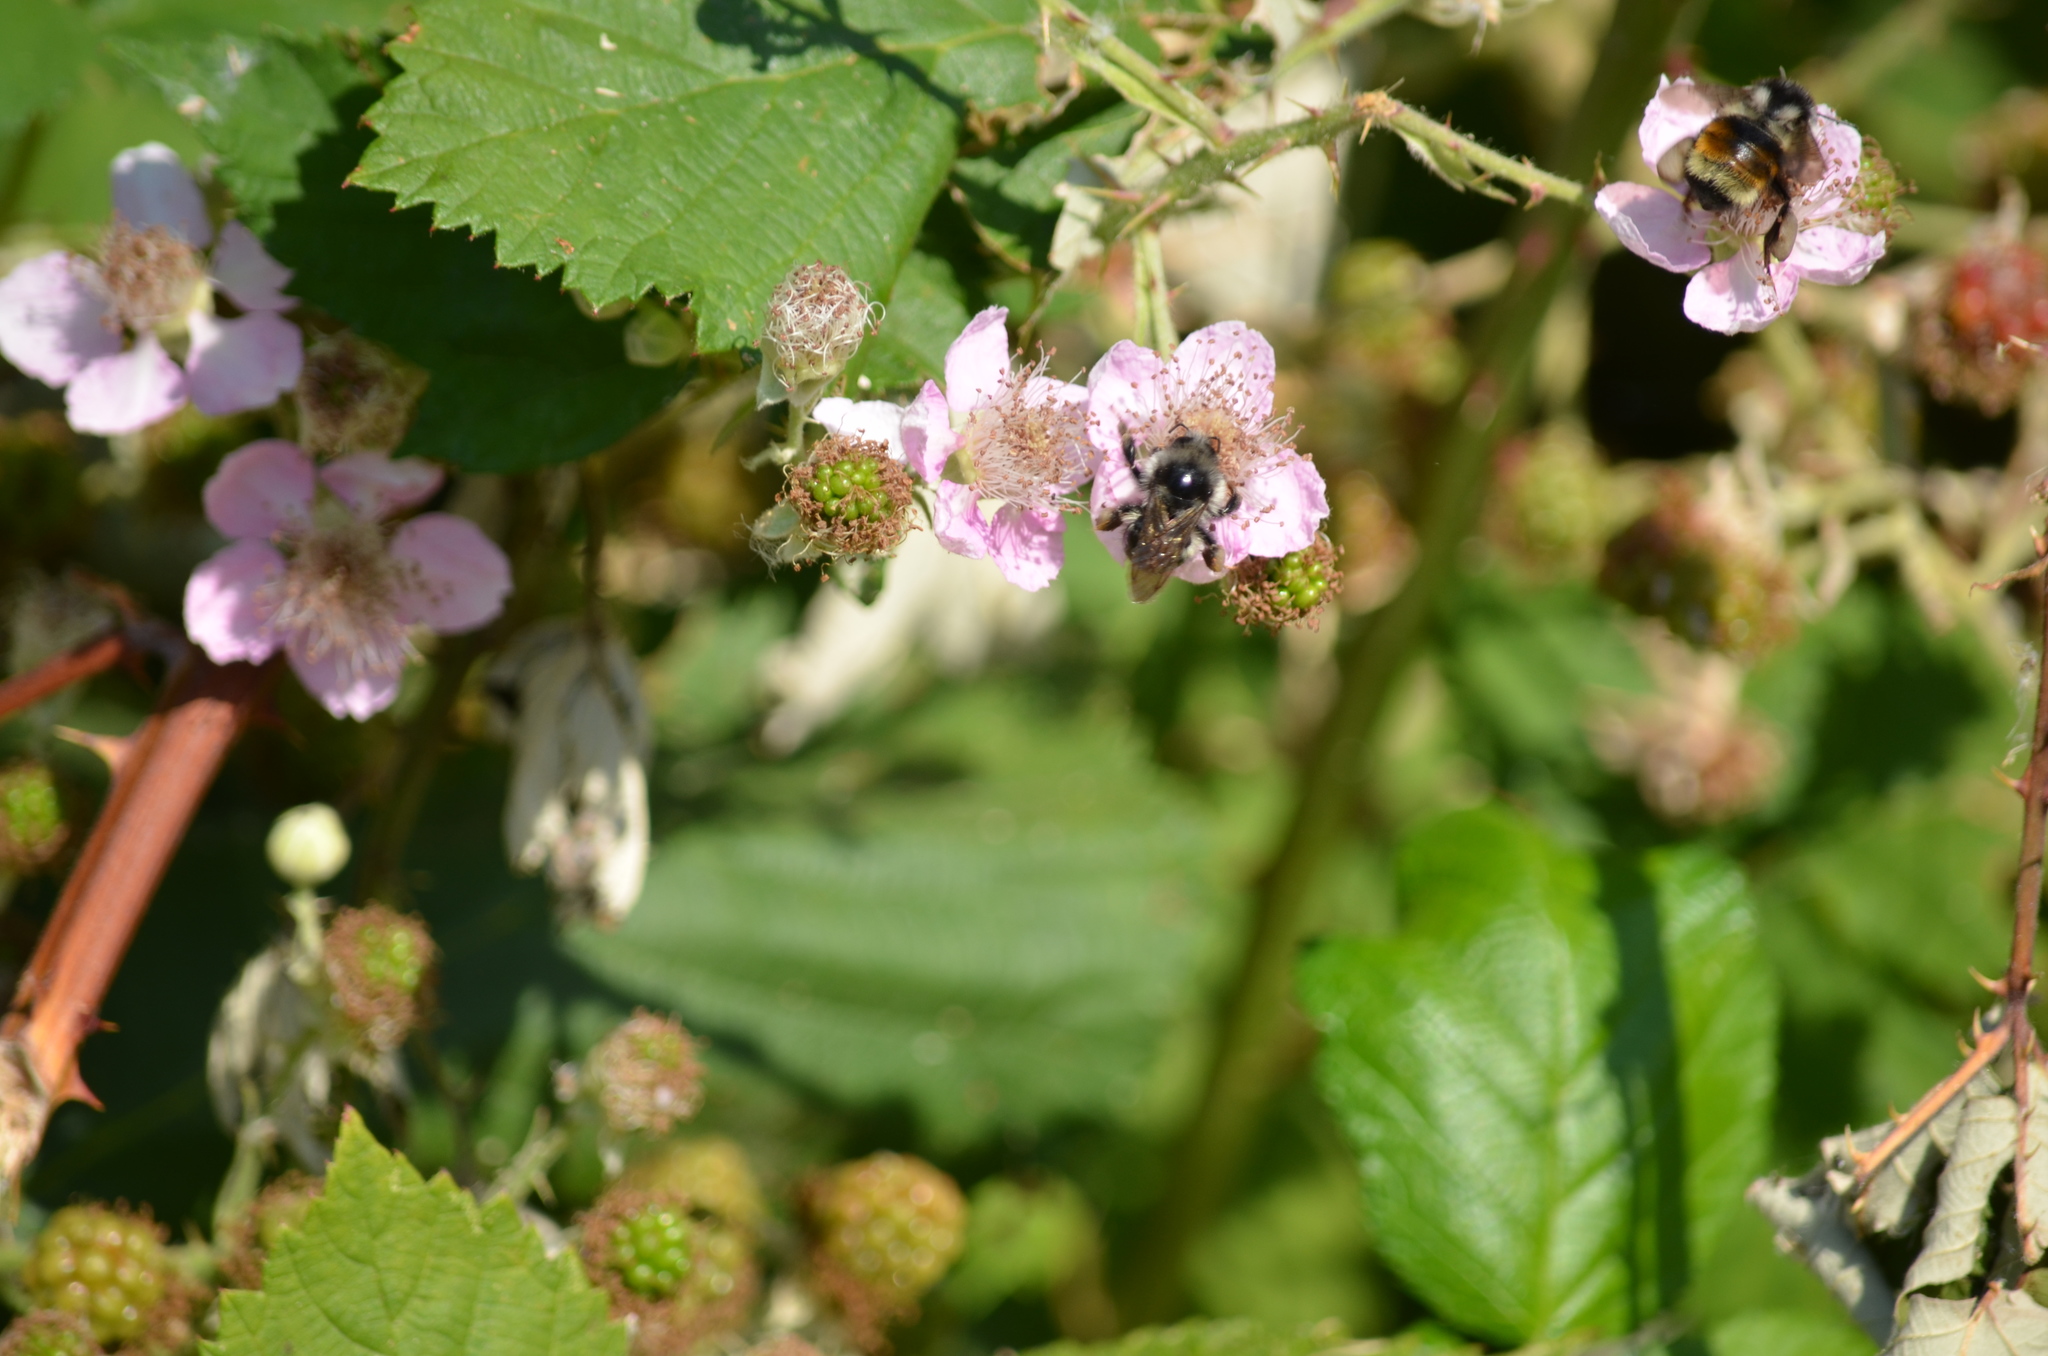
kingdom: Animalia
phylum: Arthropoda
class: Insecta
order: Hymenoptera
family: Apidae
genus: Bombus
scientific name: Bombus vancouverensis
